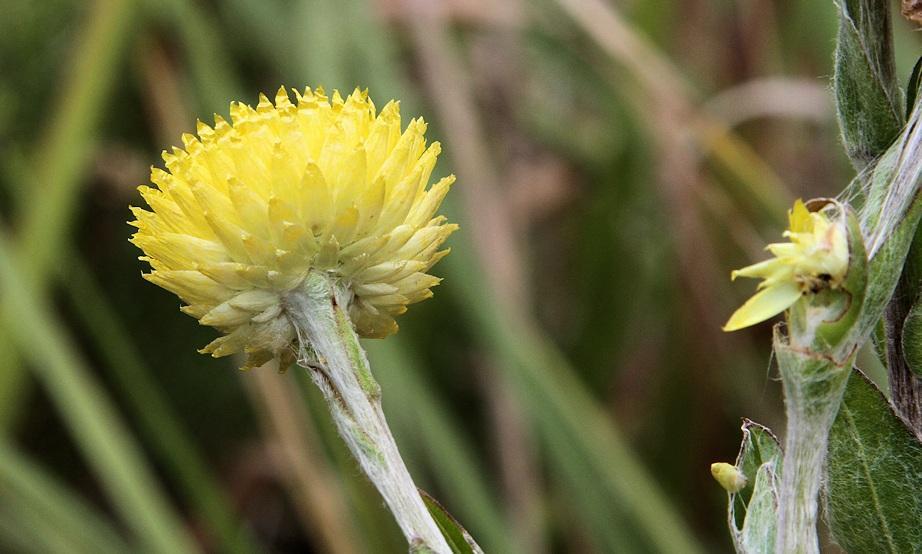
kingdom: Plantae
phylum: Tracheophyta
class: Magnoliopsida
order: Asterales
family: Asteraceae
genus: Helichrysum
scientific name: Helichrysum ruderale
